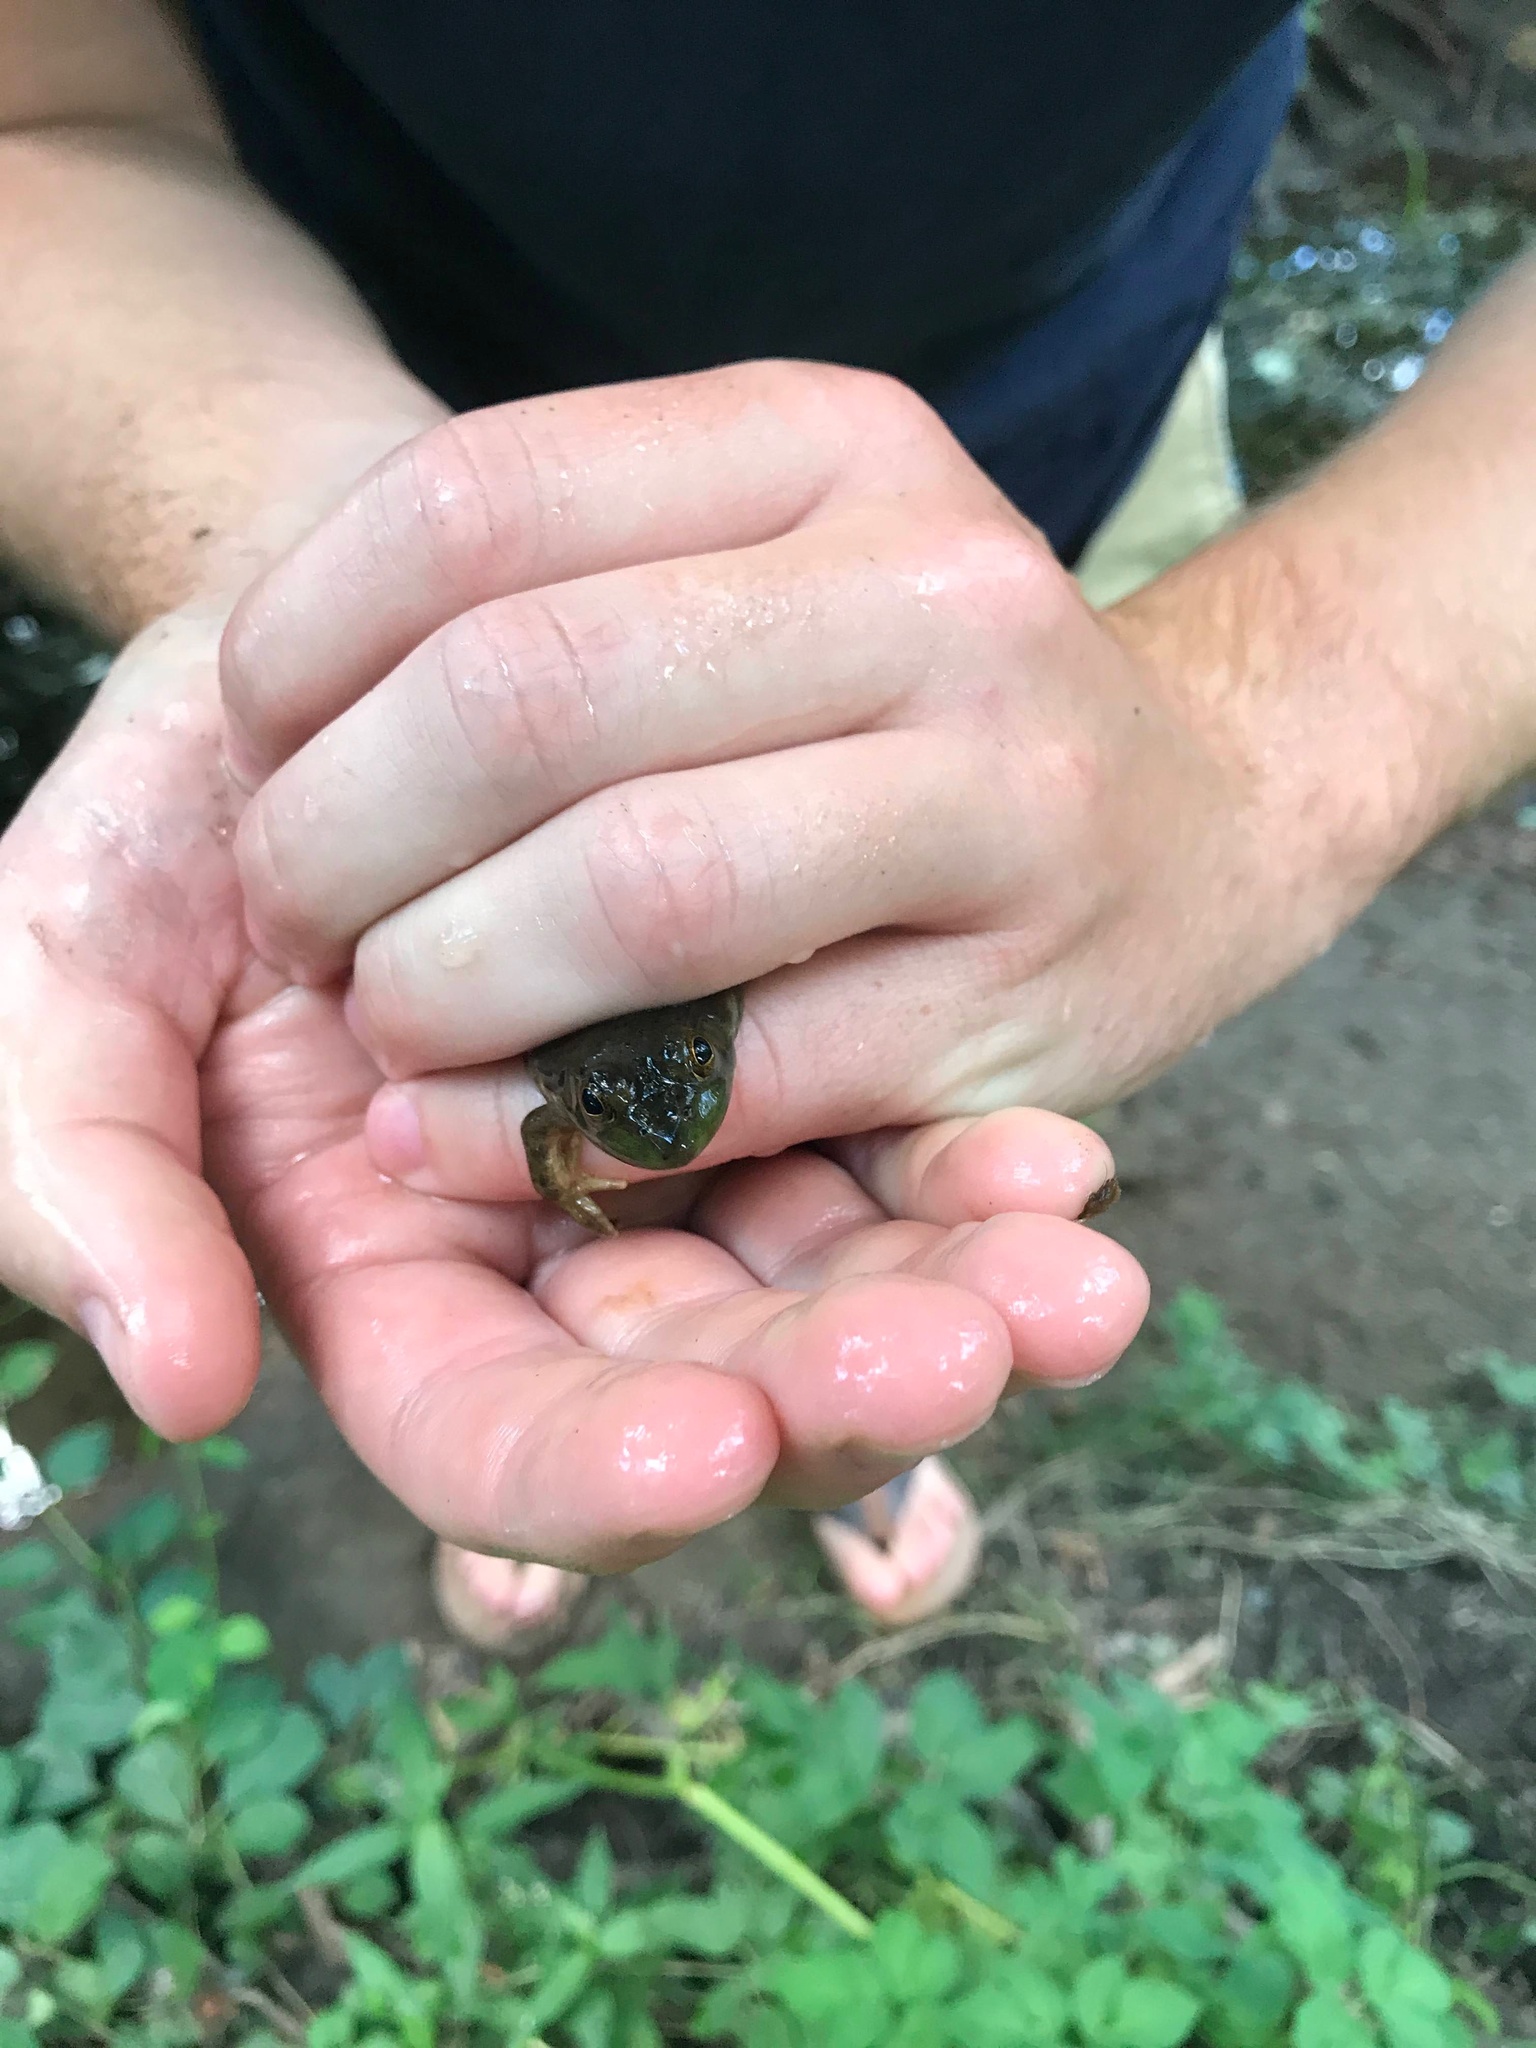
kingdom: Animalia
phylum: Chordata
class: Amphibia
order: Anura
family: Ranidae
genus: Lithobates
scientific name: Lithobates catesbeianus
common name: American bullfrog
